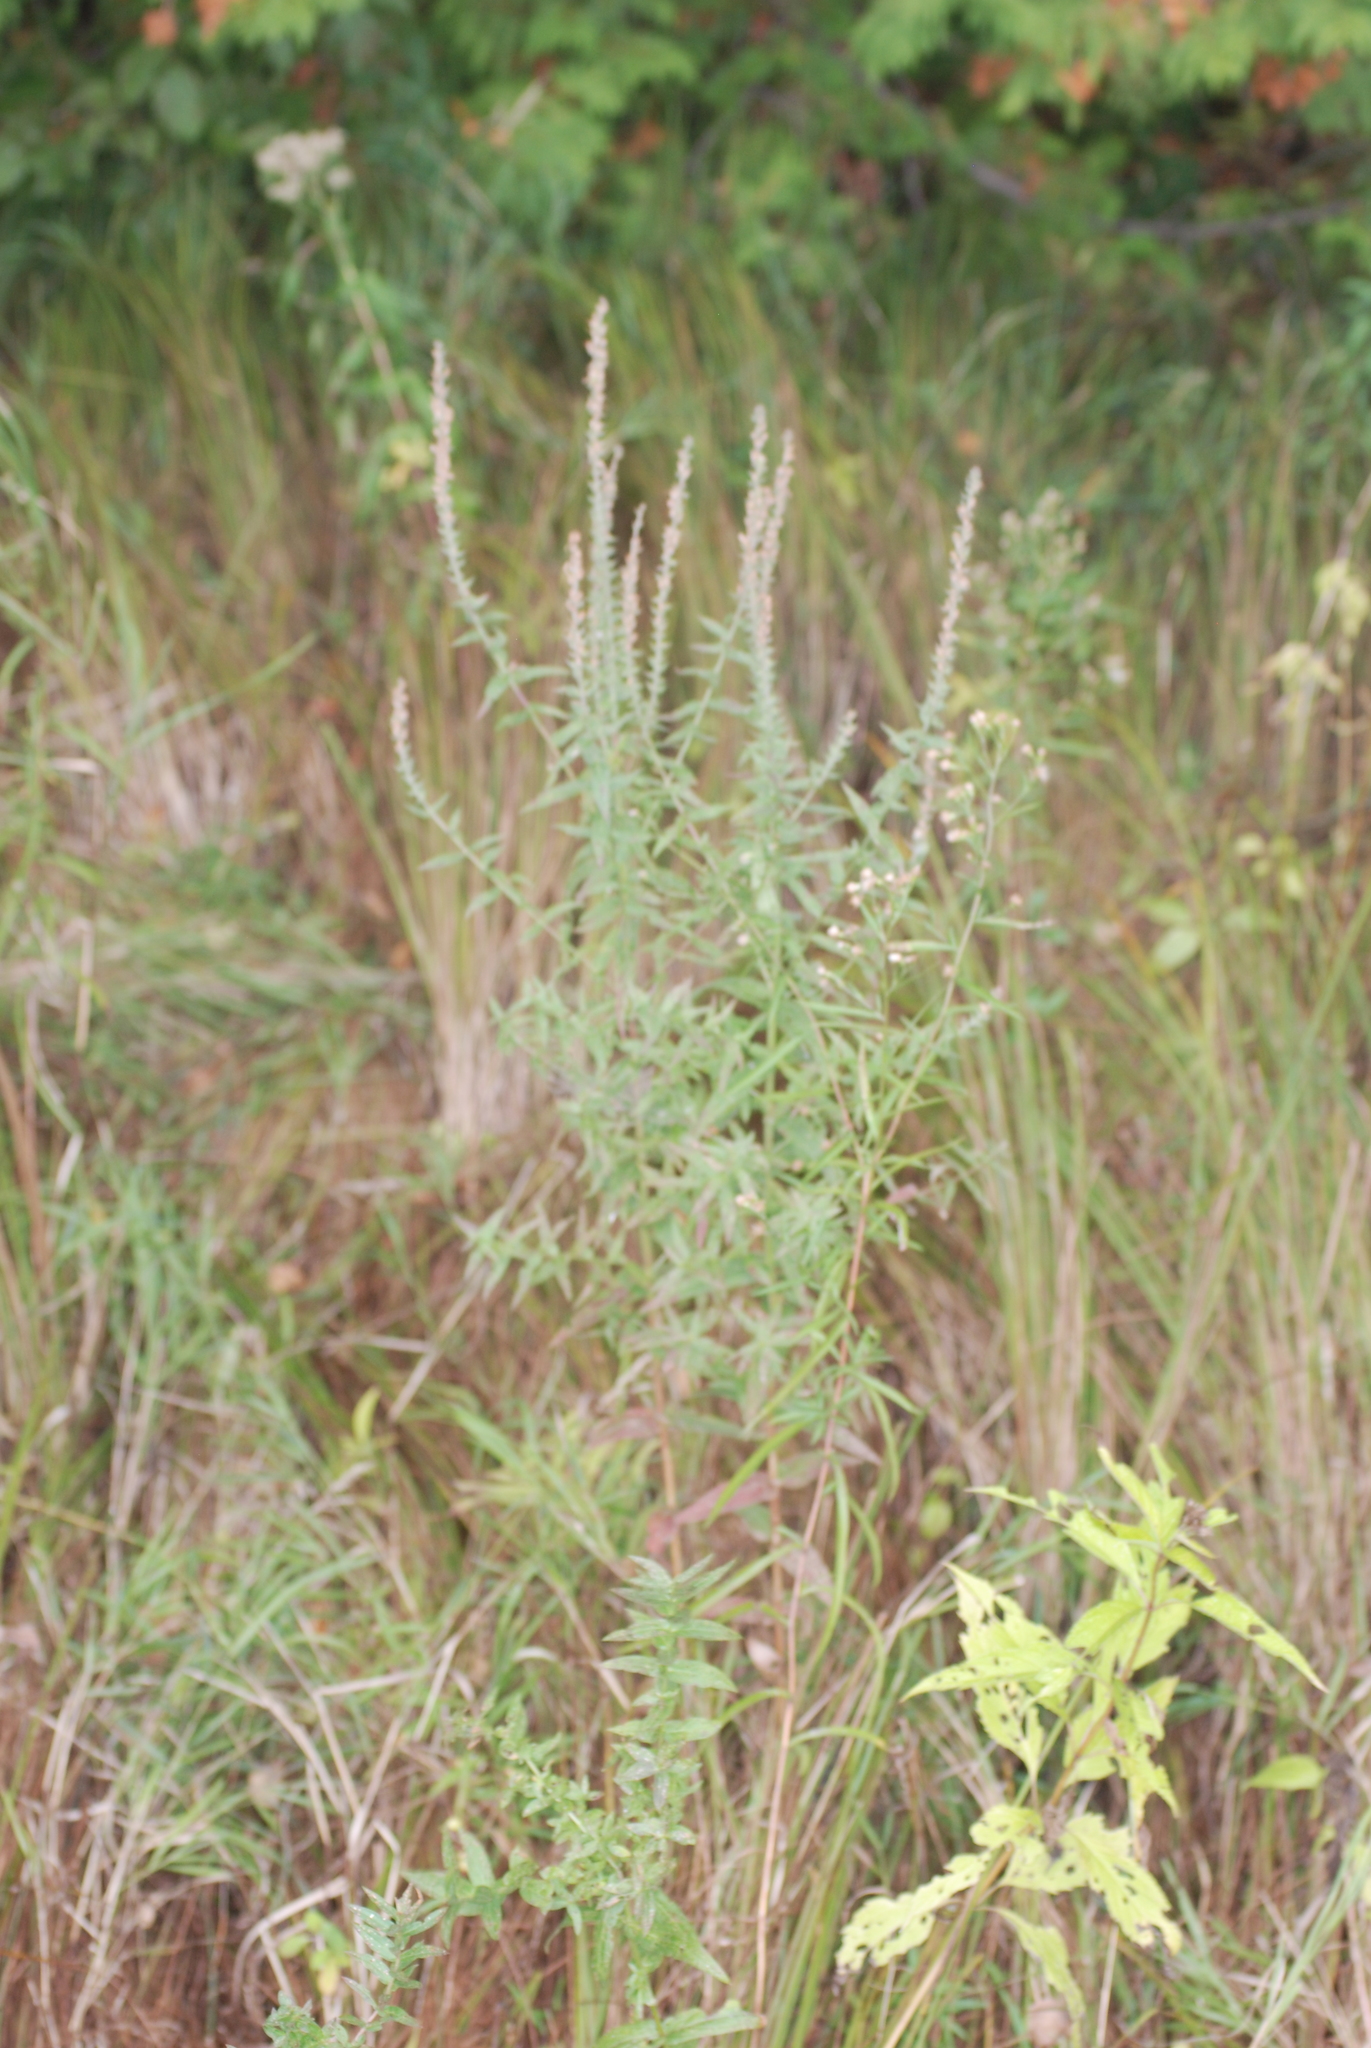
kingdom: Plantae
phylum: Tracheophyta
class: Magnoliopsida
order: Myrtales
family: Lythraceae
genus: Lythrum
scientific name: Lythrum salicaria
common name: Purple loosestrife
